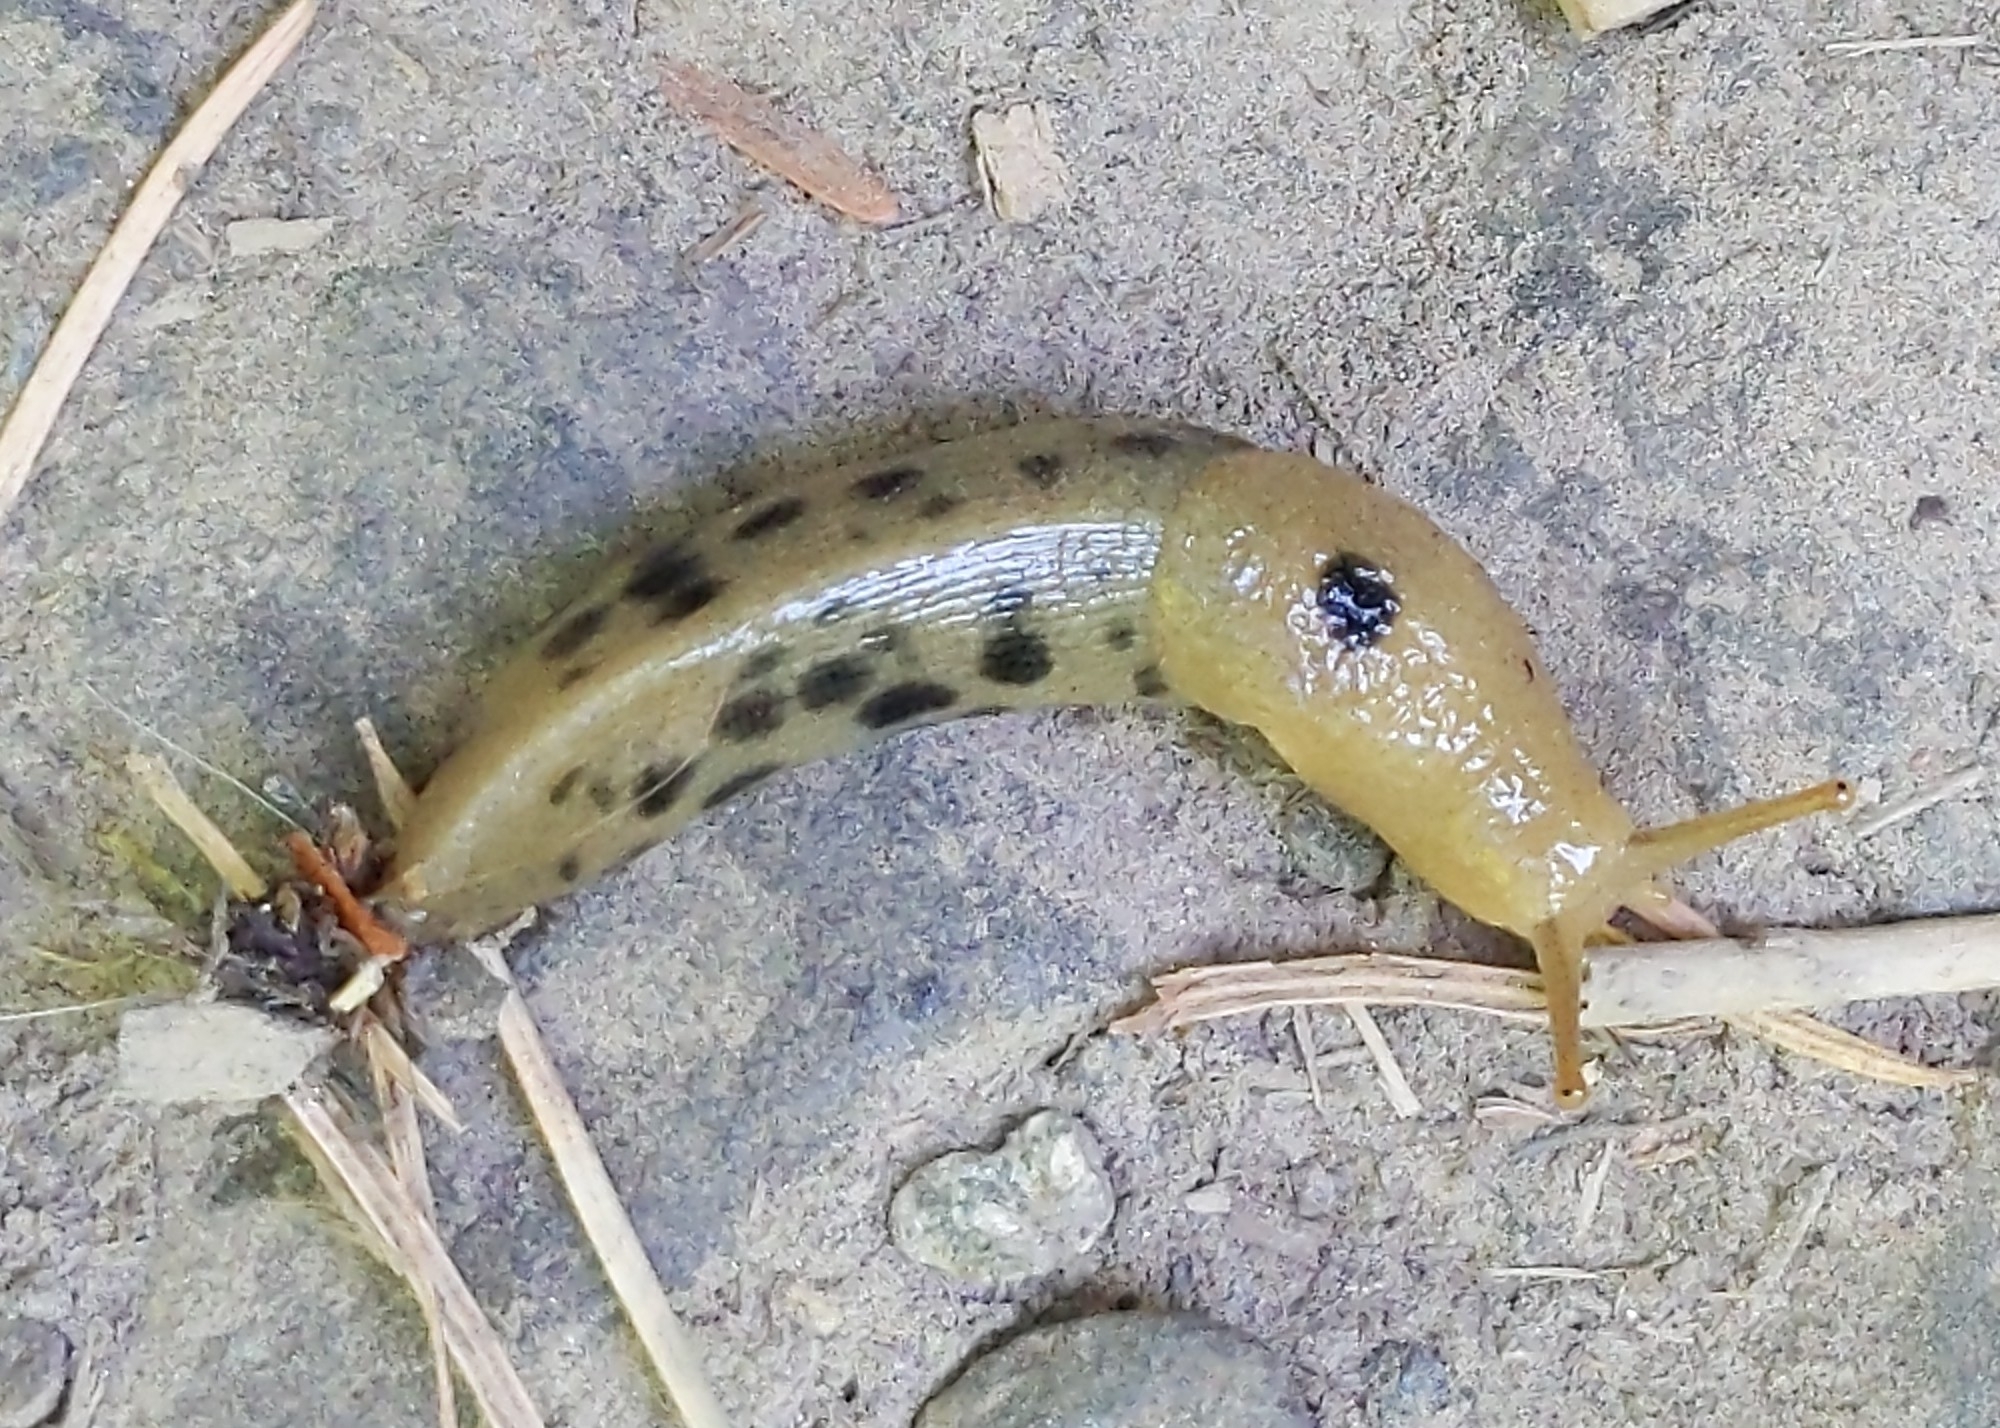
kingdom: Animalia
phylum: Mollusca
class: Gastropoda
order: Stylommatophora
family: Ariolimacidae
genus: Ariolimax
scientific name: Ariolimax columbianus
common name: Pacific banana slug
